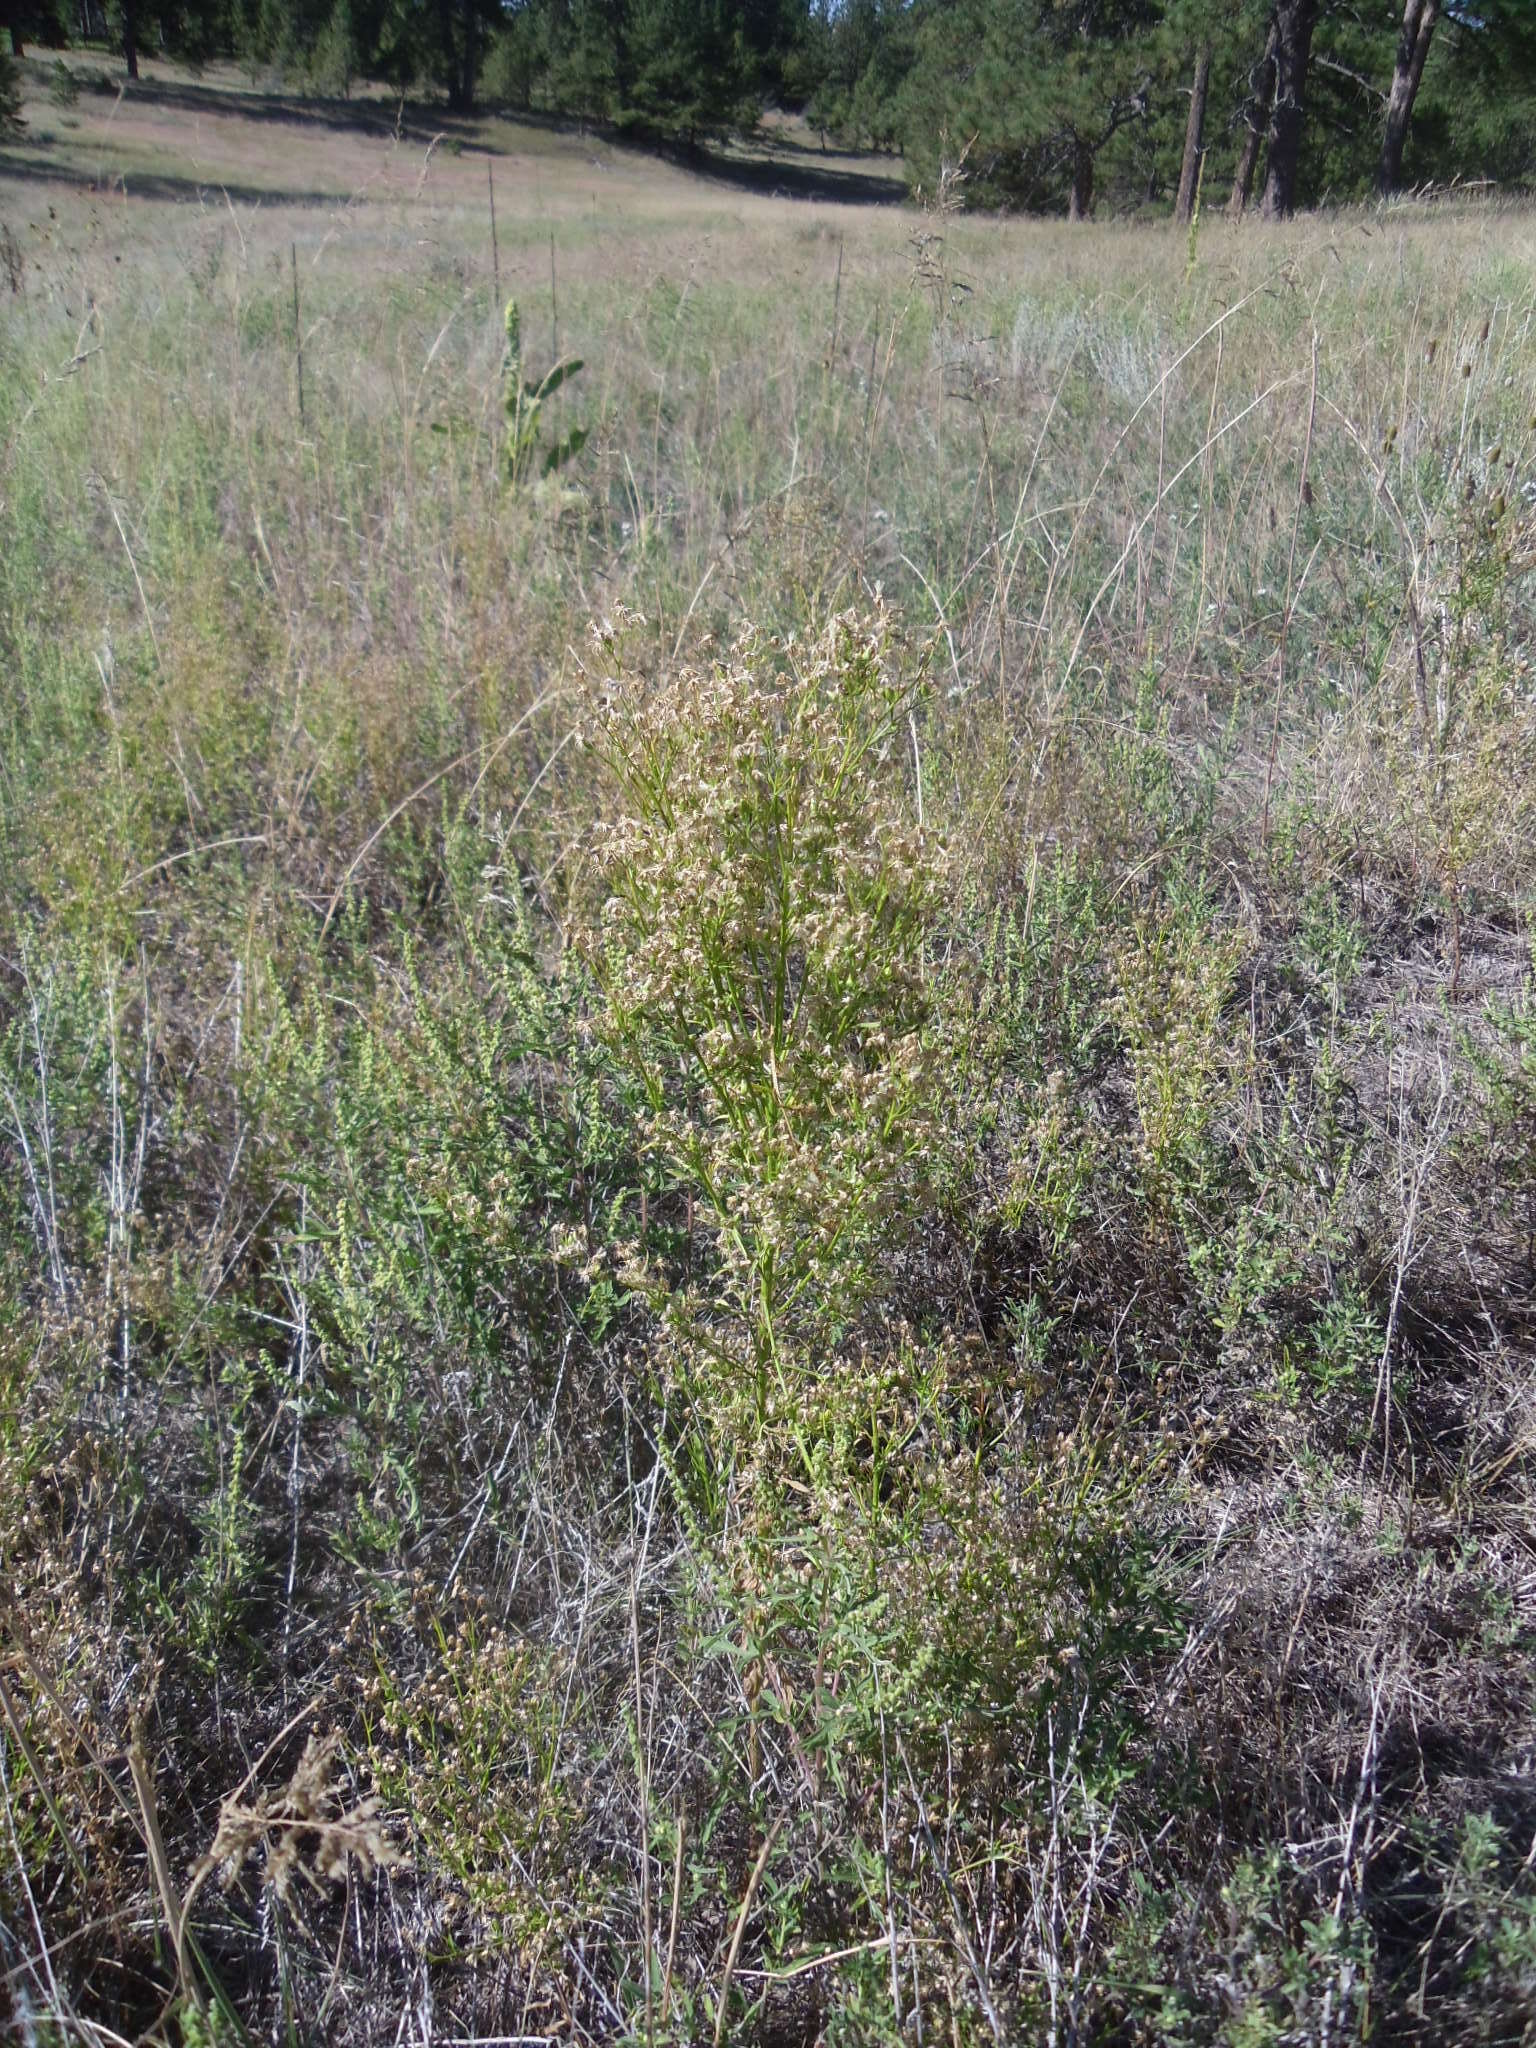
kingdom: Plantae
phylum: Tracheophyta
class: Magnoliopsida
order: Asterales
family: Asteraceae
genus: Erigeron
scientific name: Erigeron canadensis
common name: Canadian fleabane
